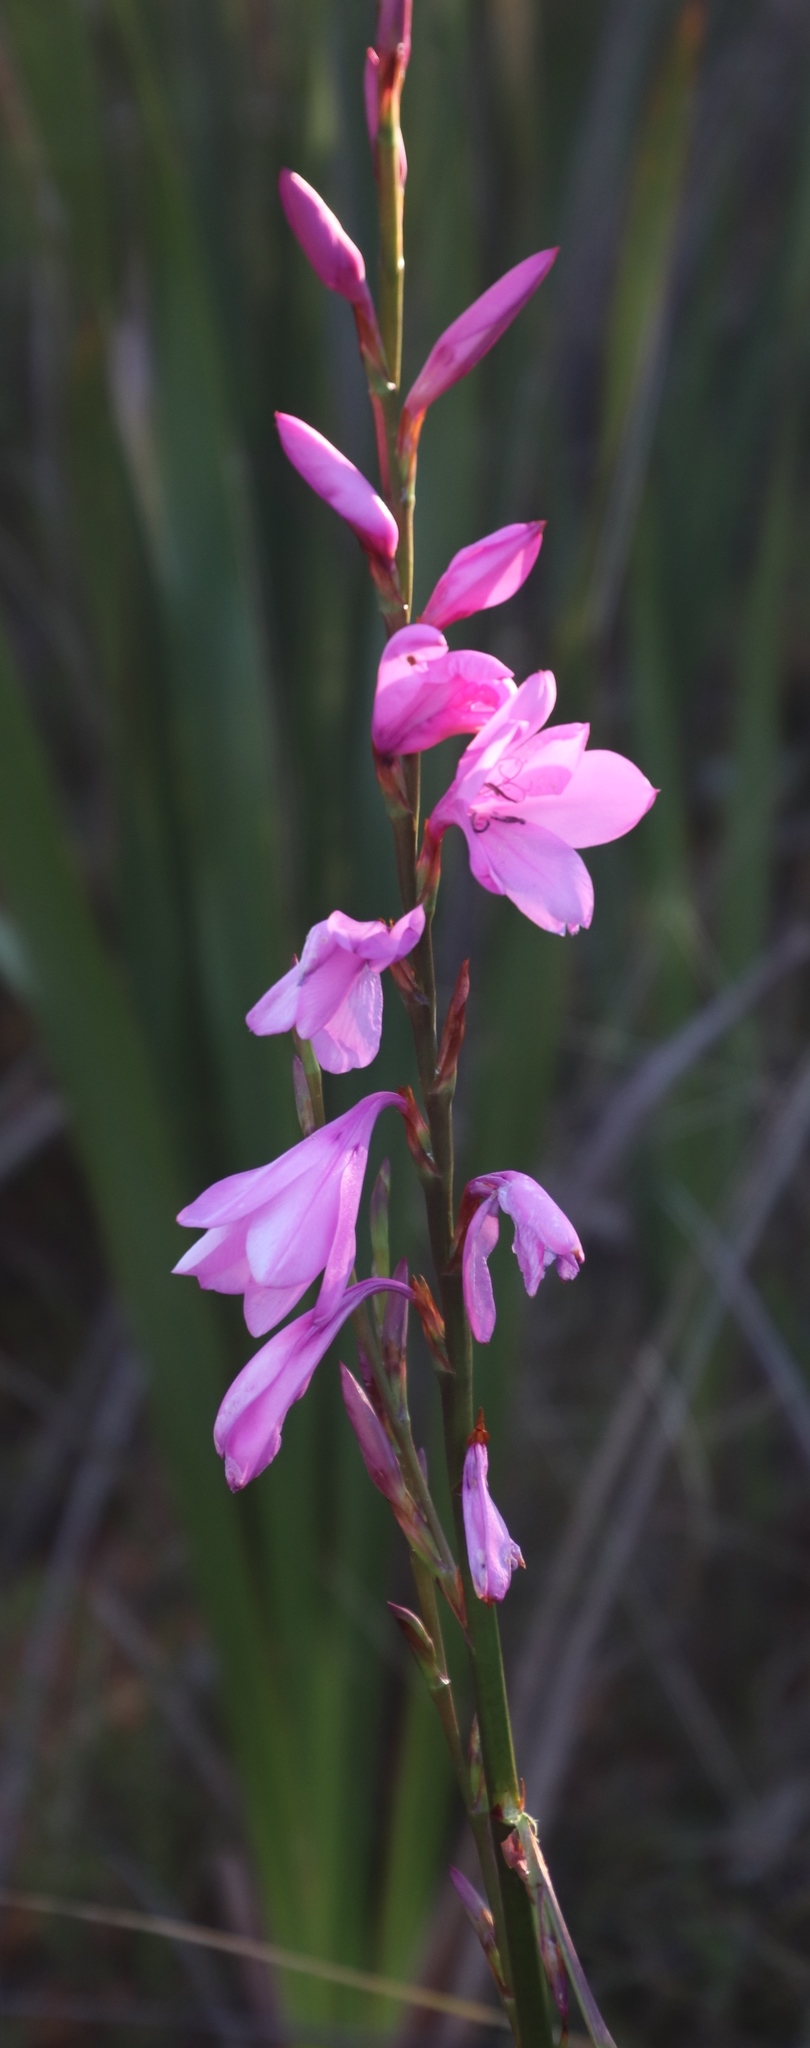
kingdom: Plantae
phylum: Tracheophyta
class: Liliopsida
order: Asparagales
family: Iridaceae
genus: Watsonia
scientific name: Watsonia borbonica
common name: Bugle-lily
